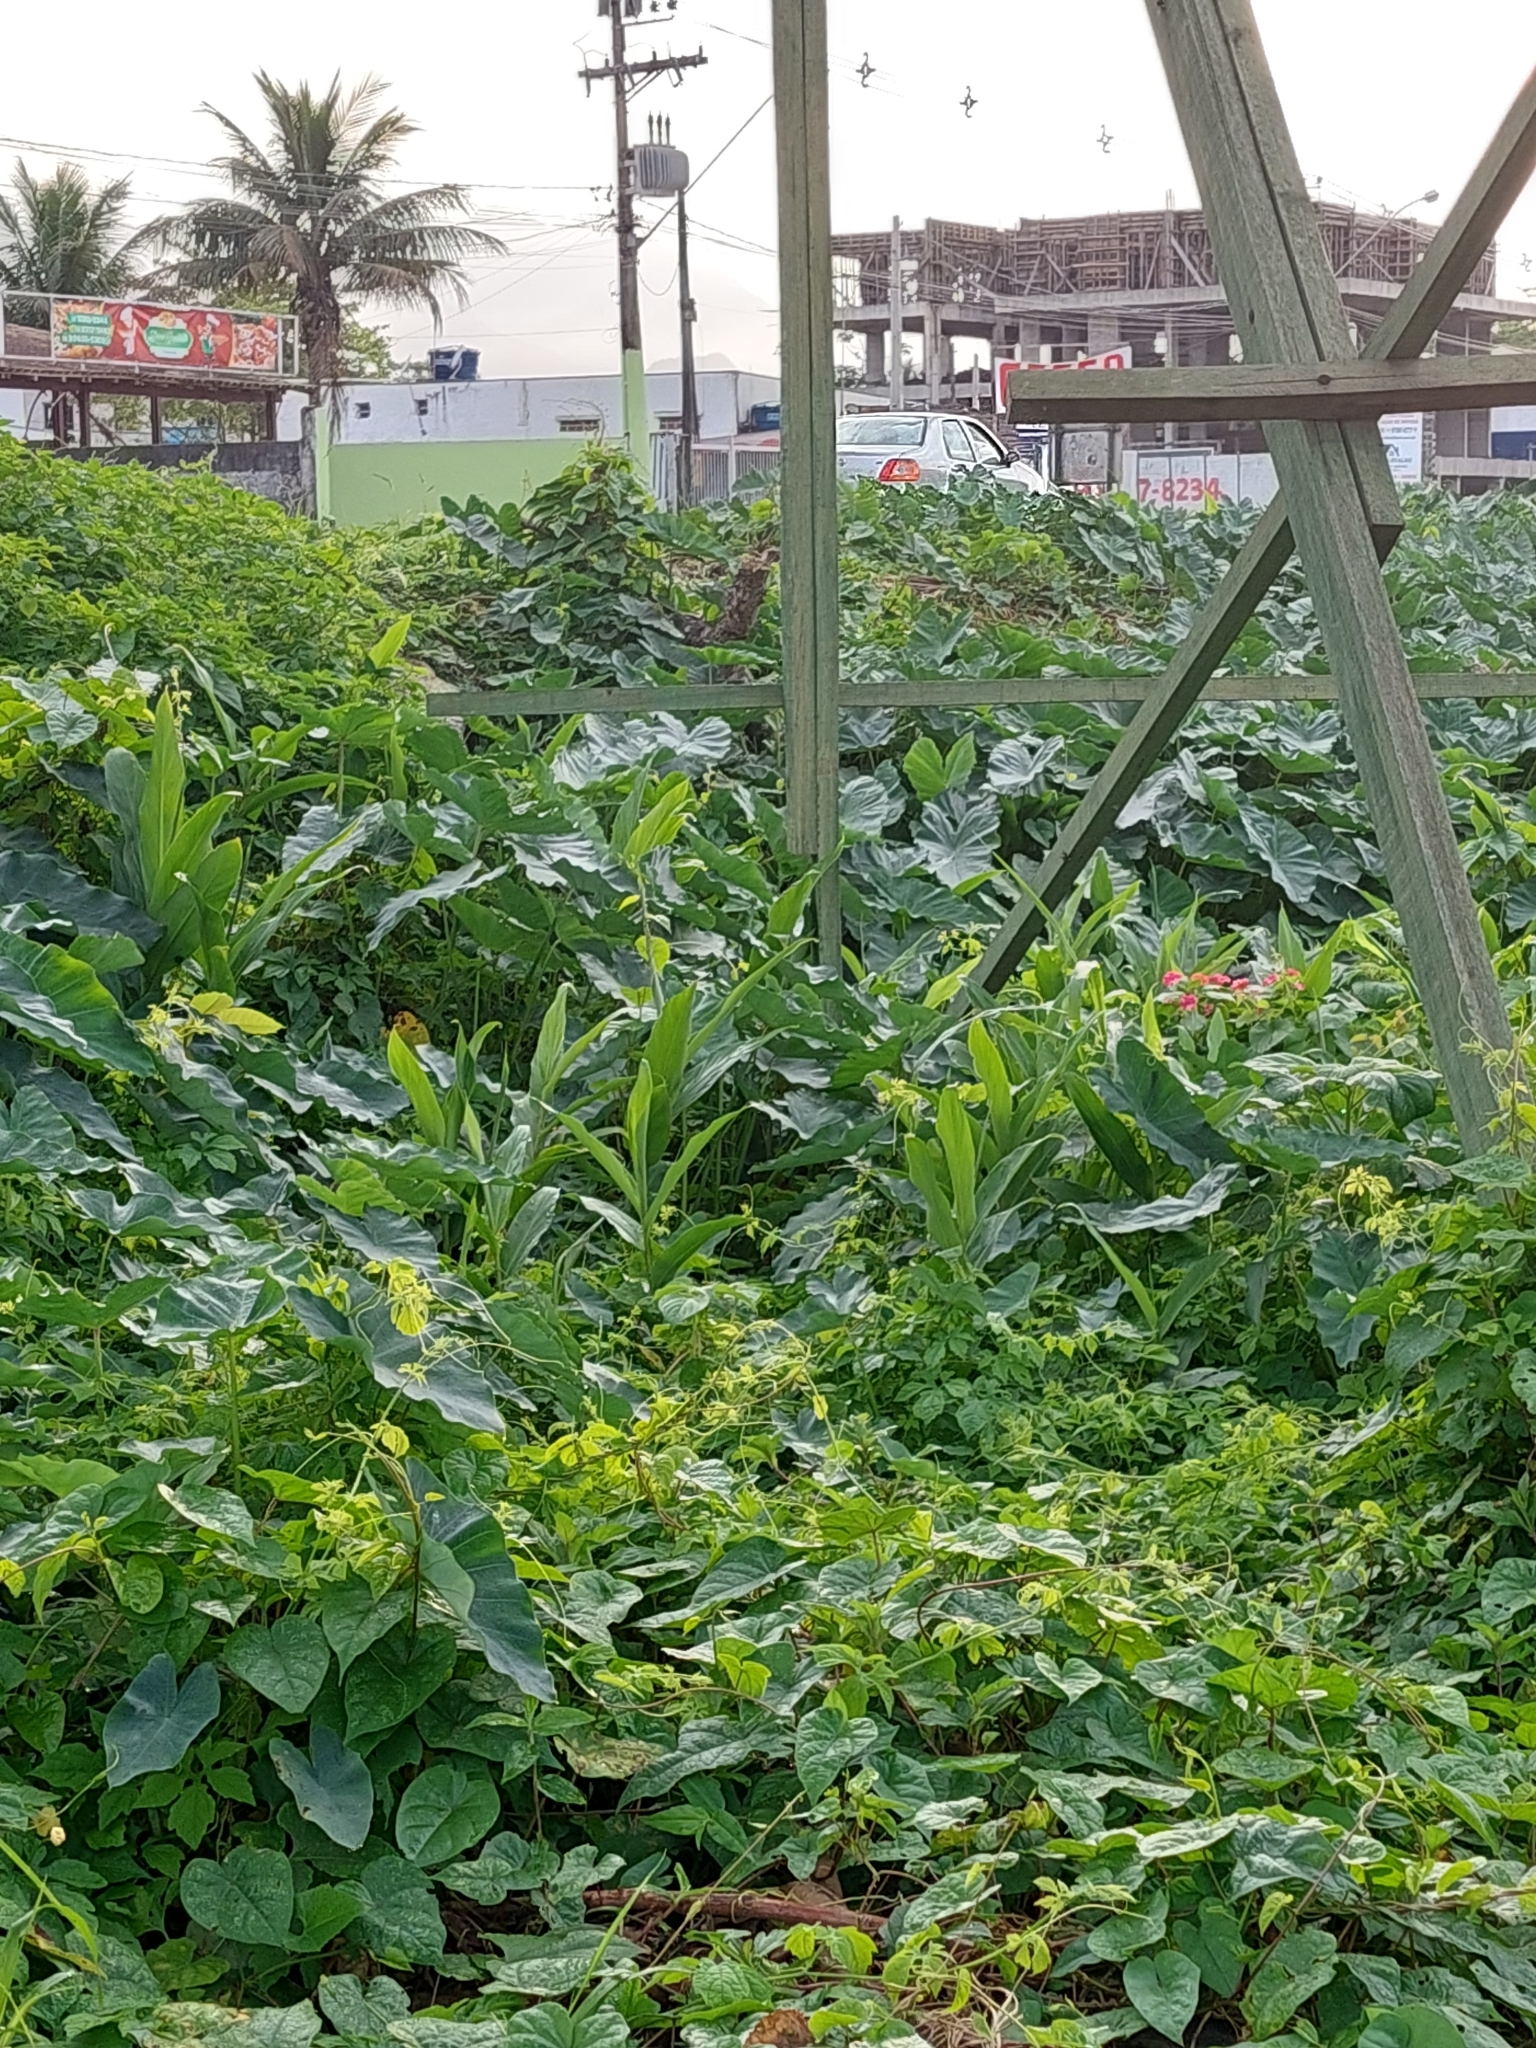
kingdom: Plantae
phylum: Tracheophyta
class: Liliopsida
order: Zingiberales
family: Zingiberaceae
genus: Hedychium
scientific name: Hedychium coronarium
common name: White garland-lily
